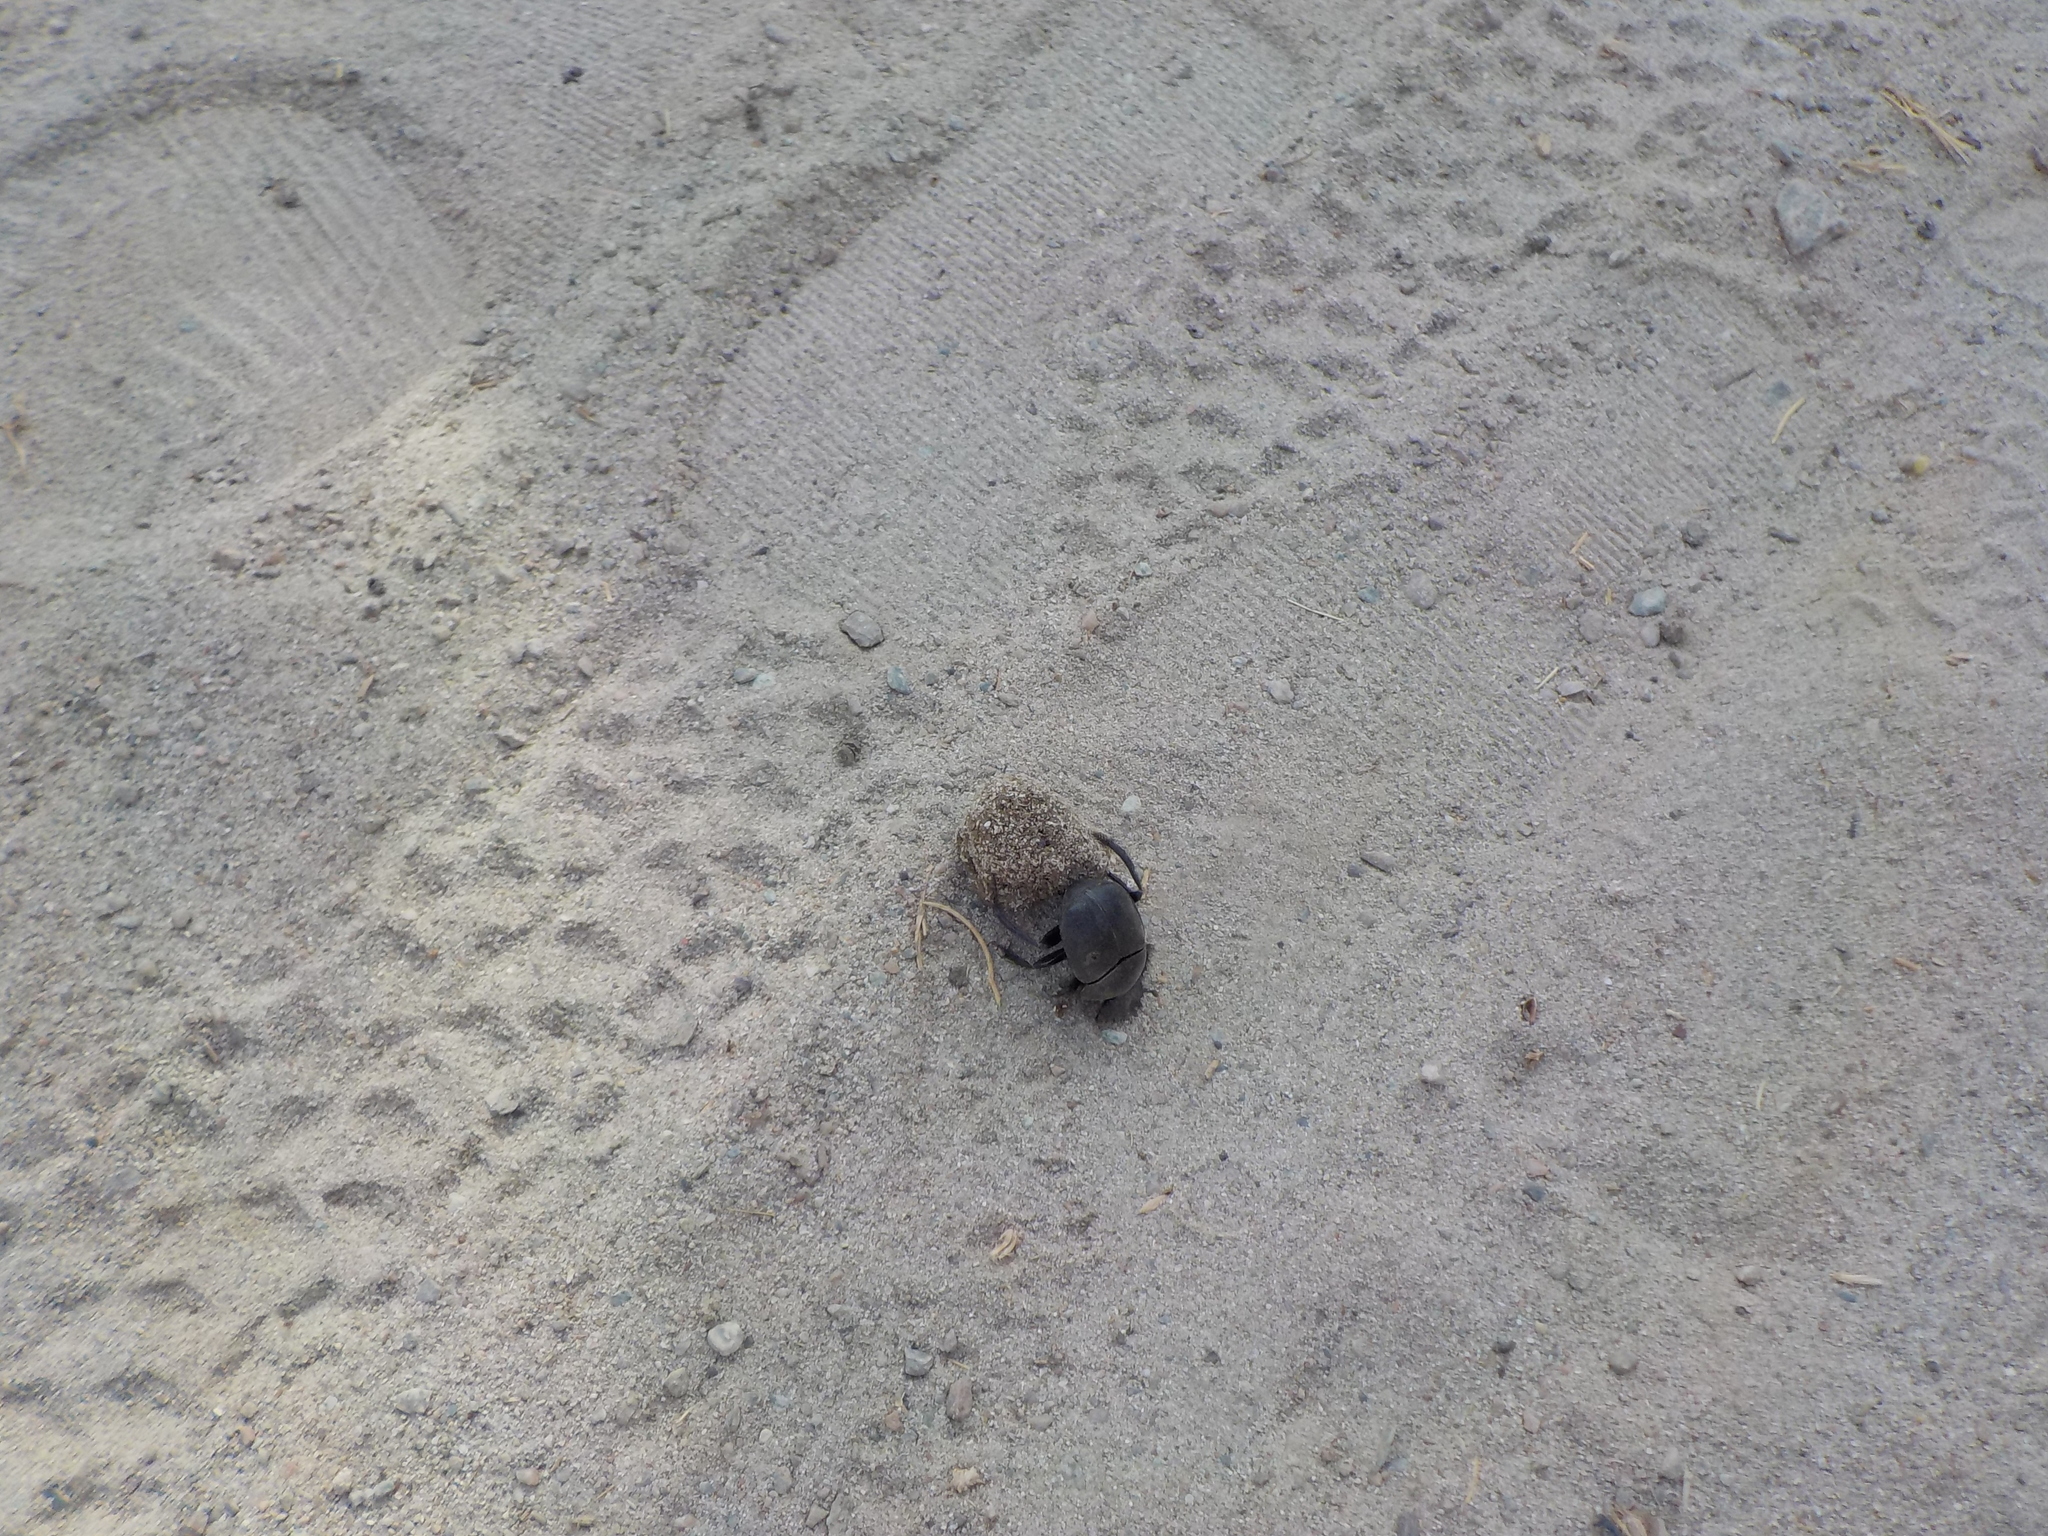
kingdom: Animalia
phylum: Arthropoda
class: Insecta
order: Coleoptera
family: Scarabaeidae
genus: Scarabaeus
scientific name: Scarabaeus sacer
